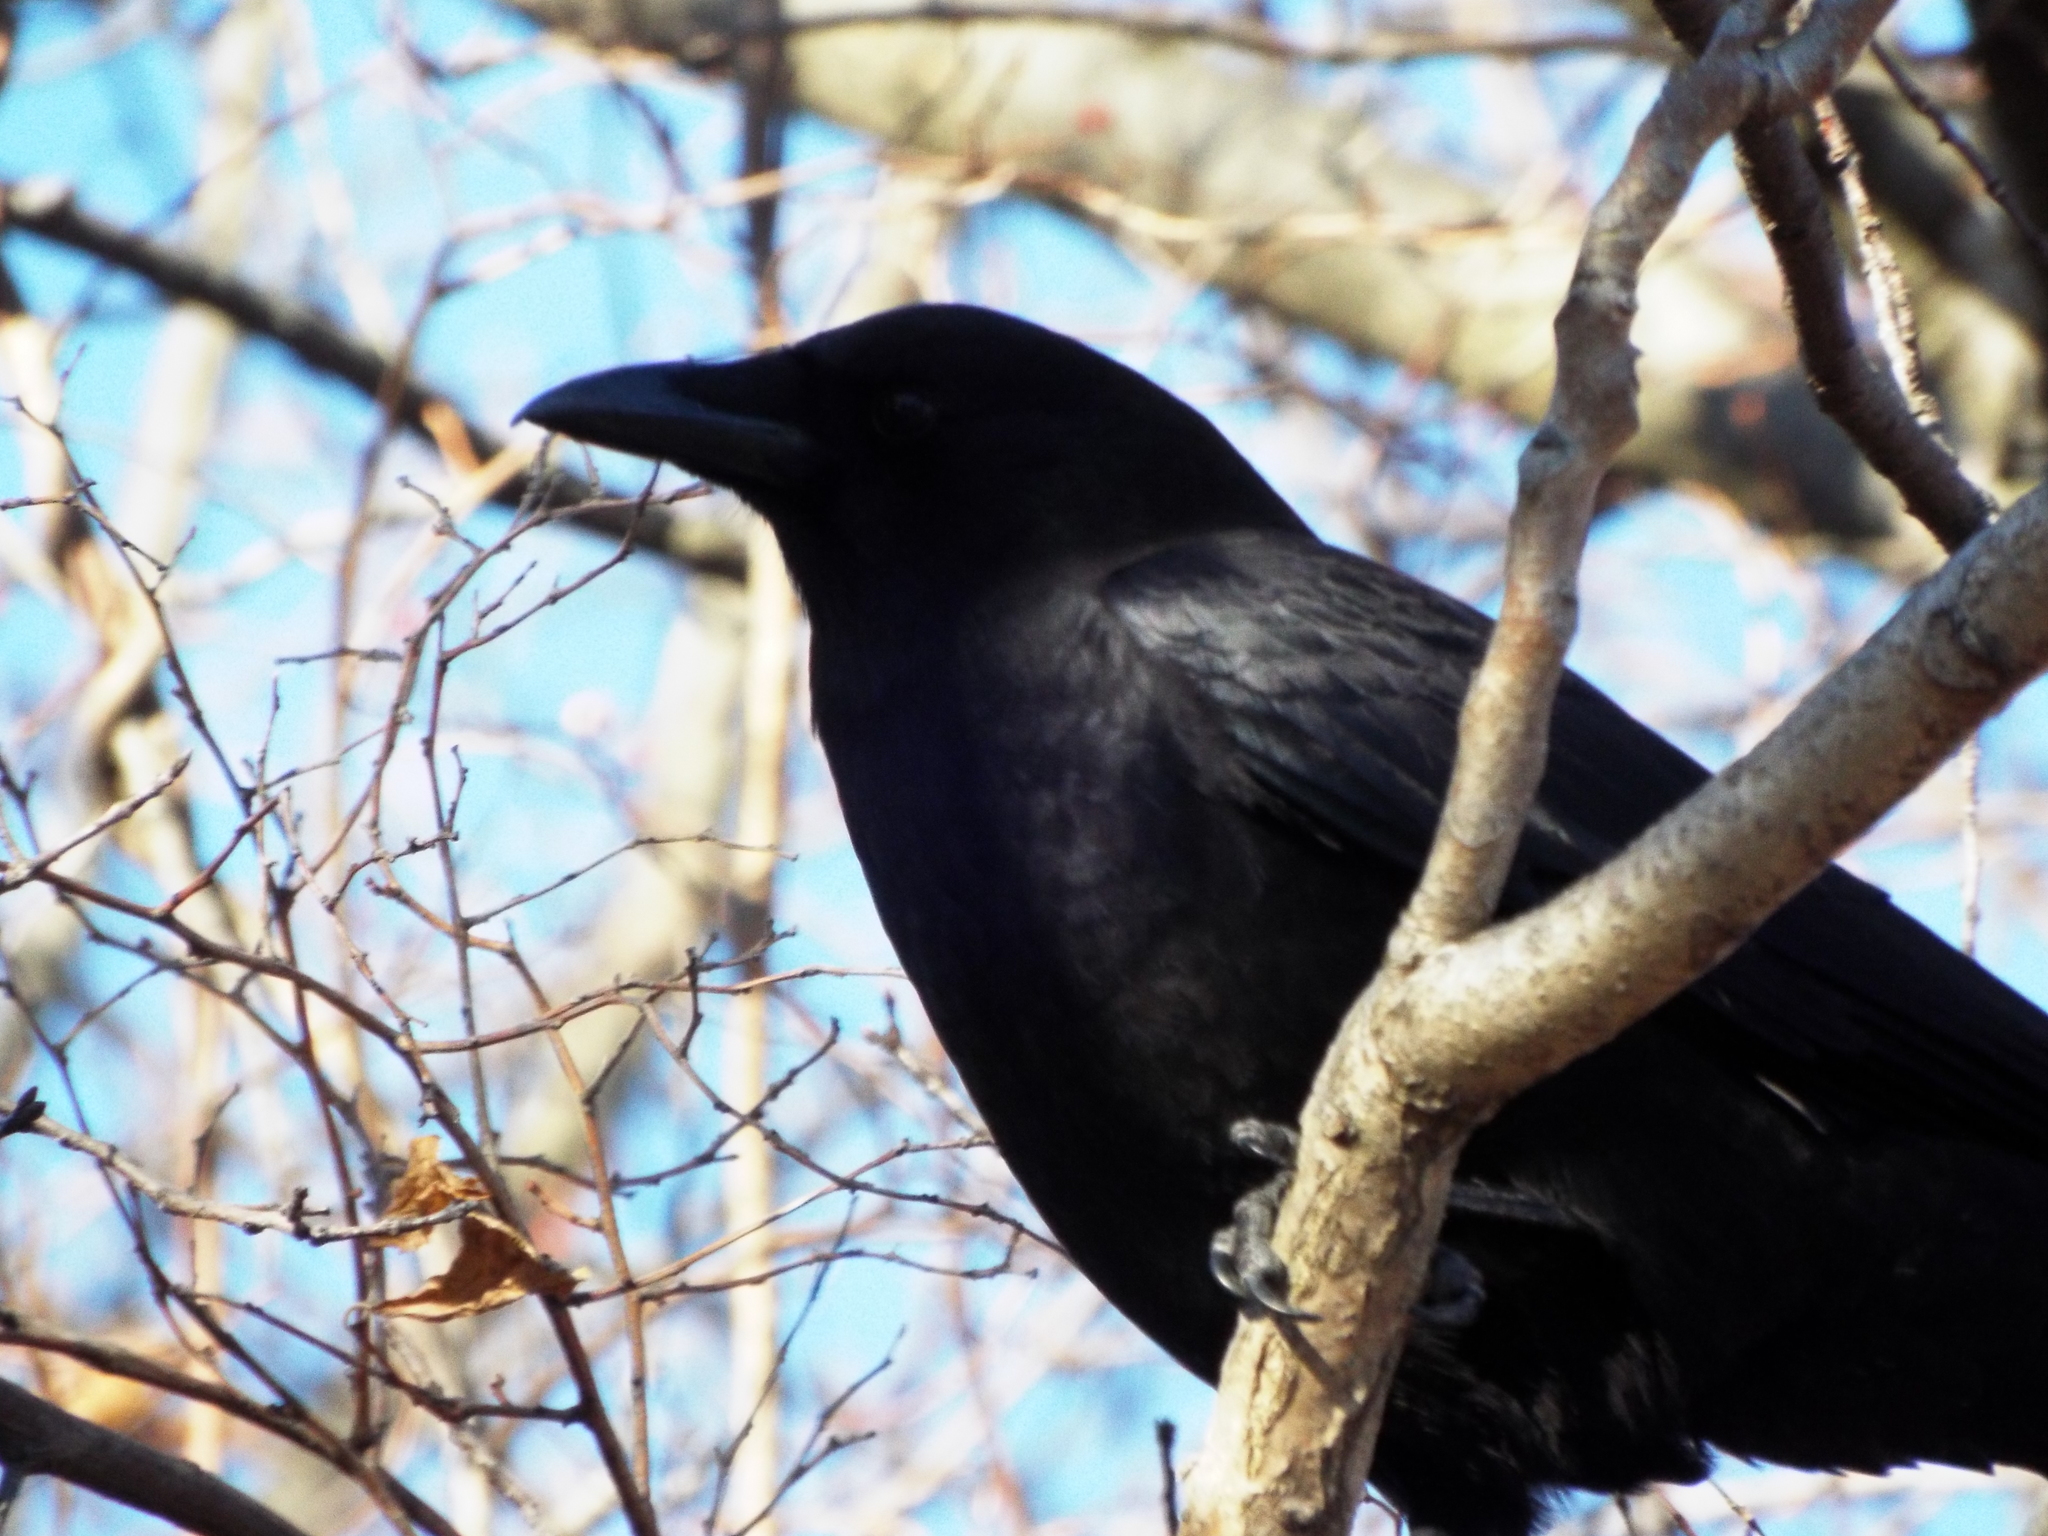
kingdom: Animalia
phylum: Chordata
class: Aves
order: Passeriformes
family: Corvidae
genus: Corvus
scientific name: Corvus brachyrhynchos
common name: American crow
